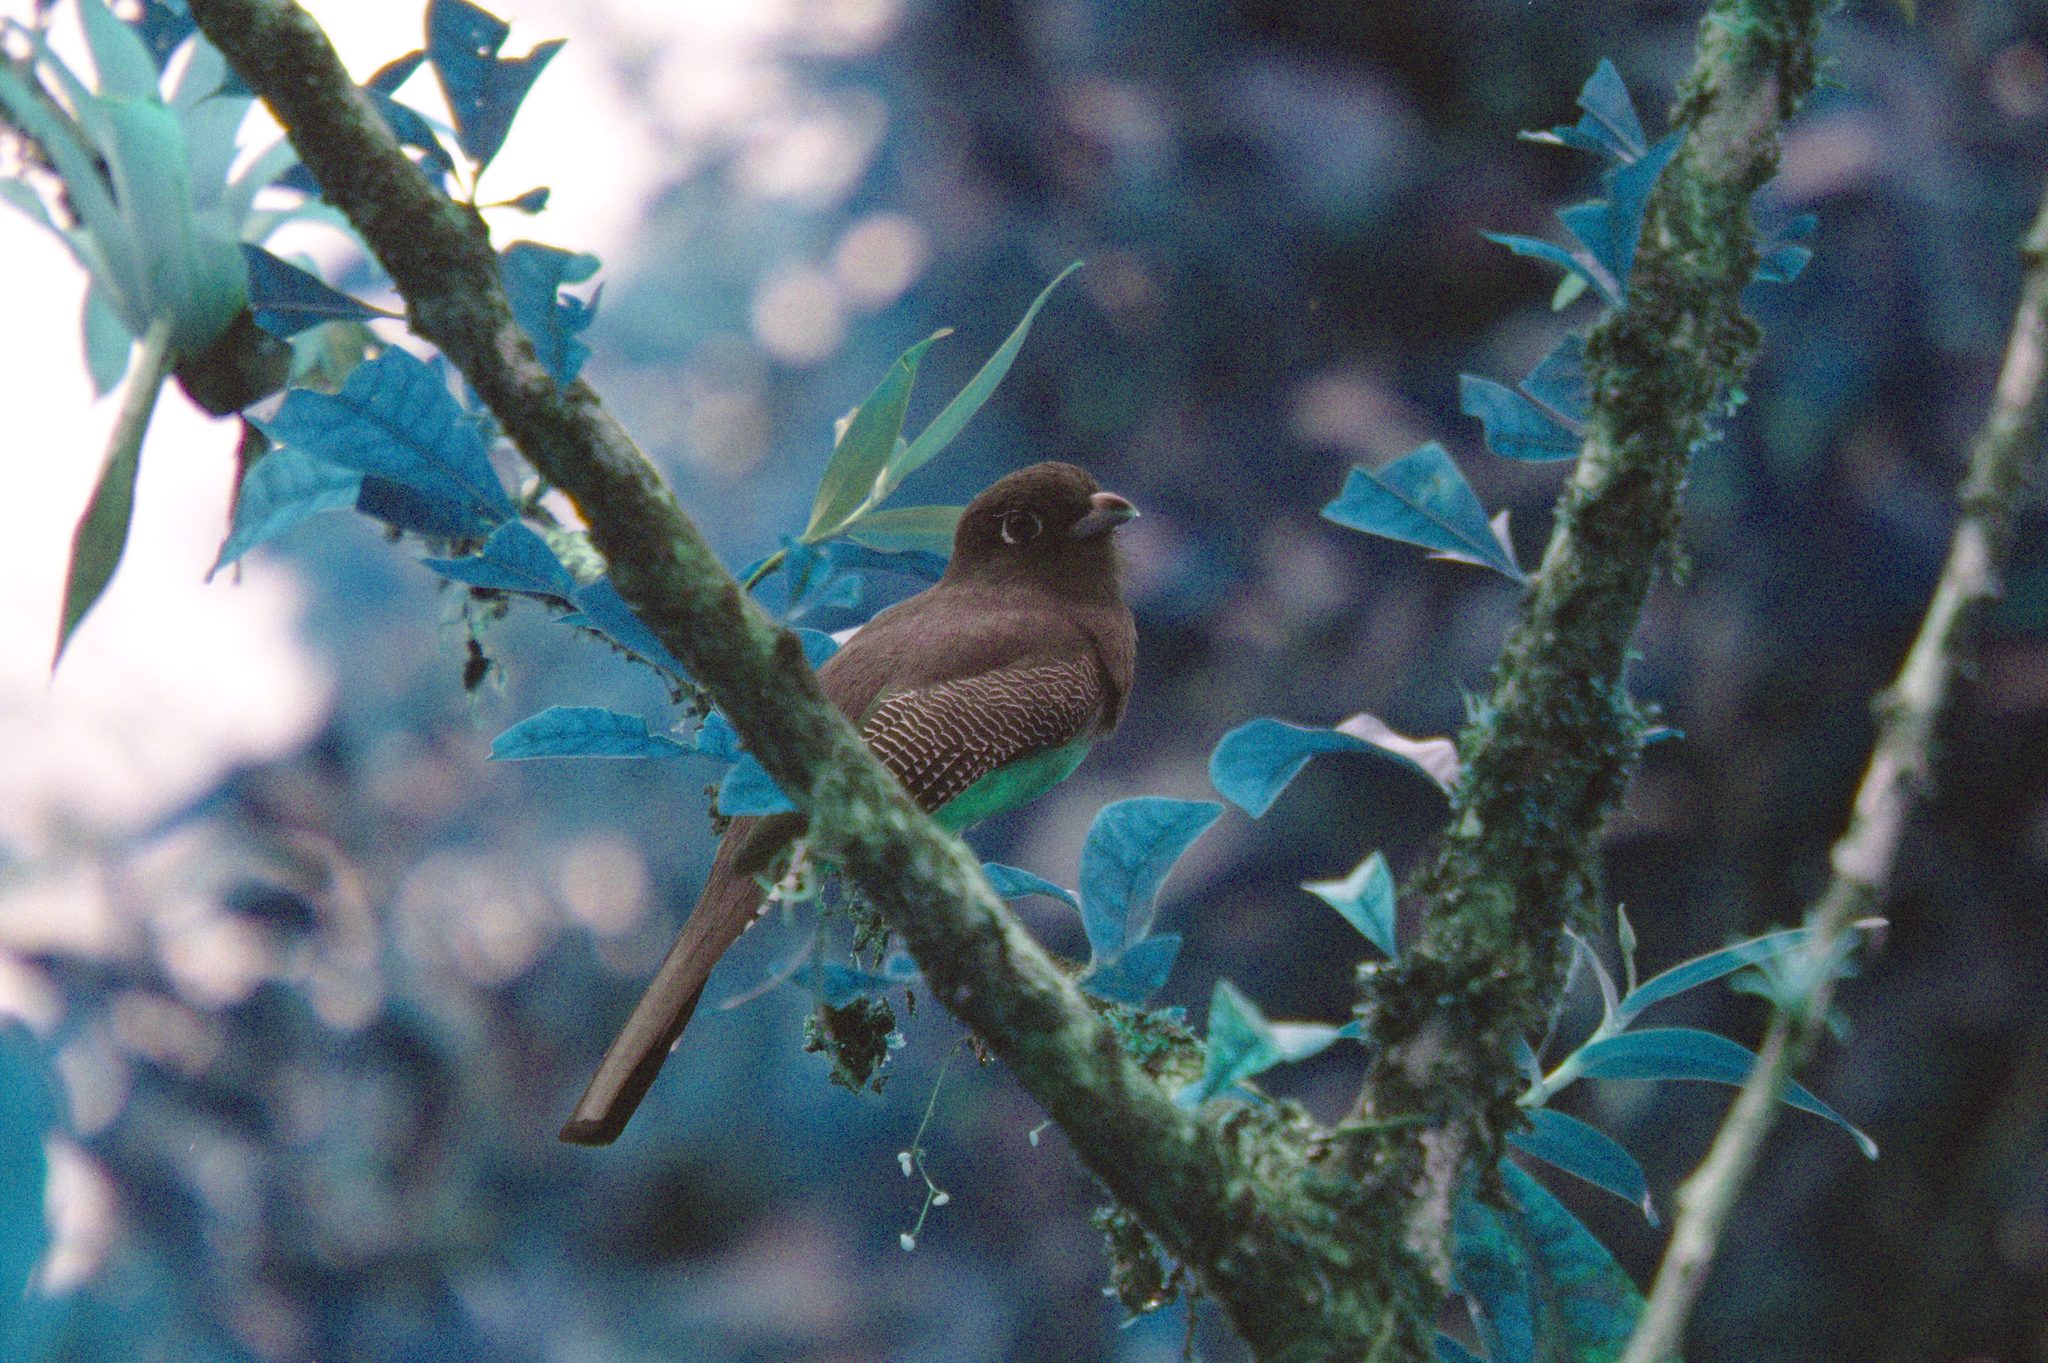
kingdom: Animalia
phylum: Chordata
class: Aves
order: Trogoniformes
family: Trogonidae
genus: Trogon
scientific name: Trogon caligatus
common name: Gartered trogon
